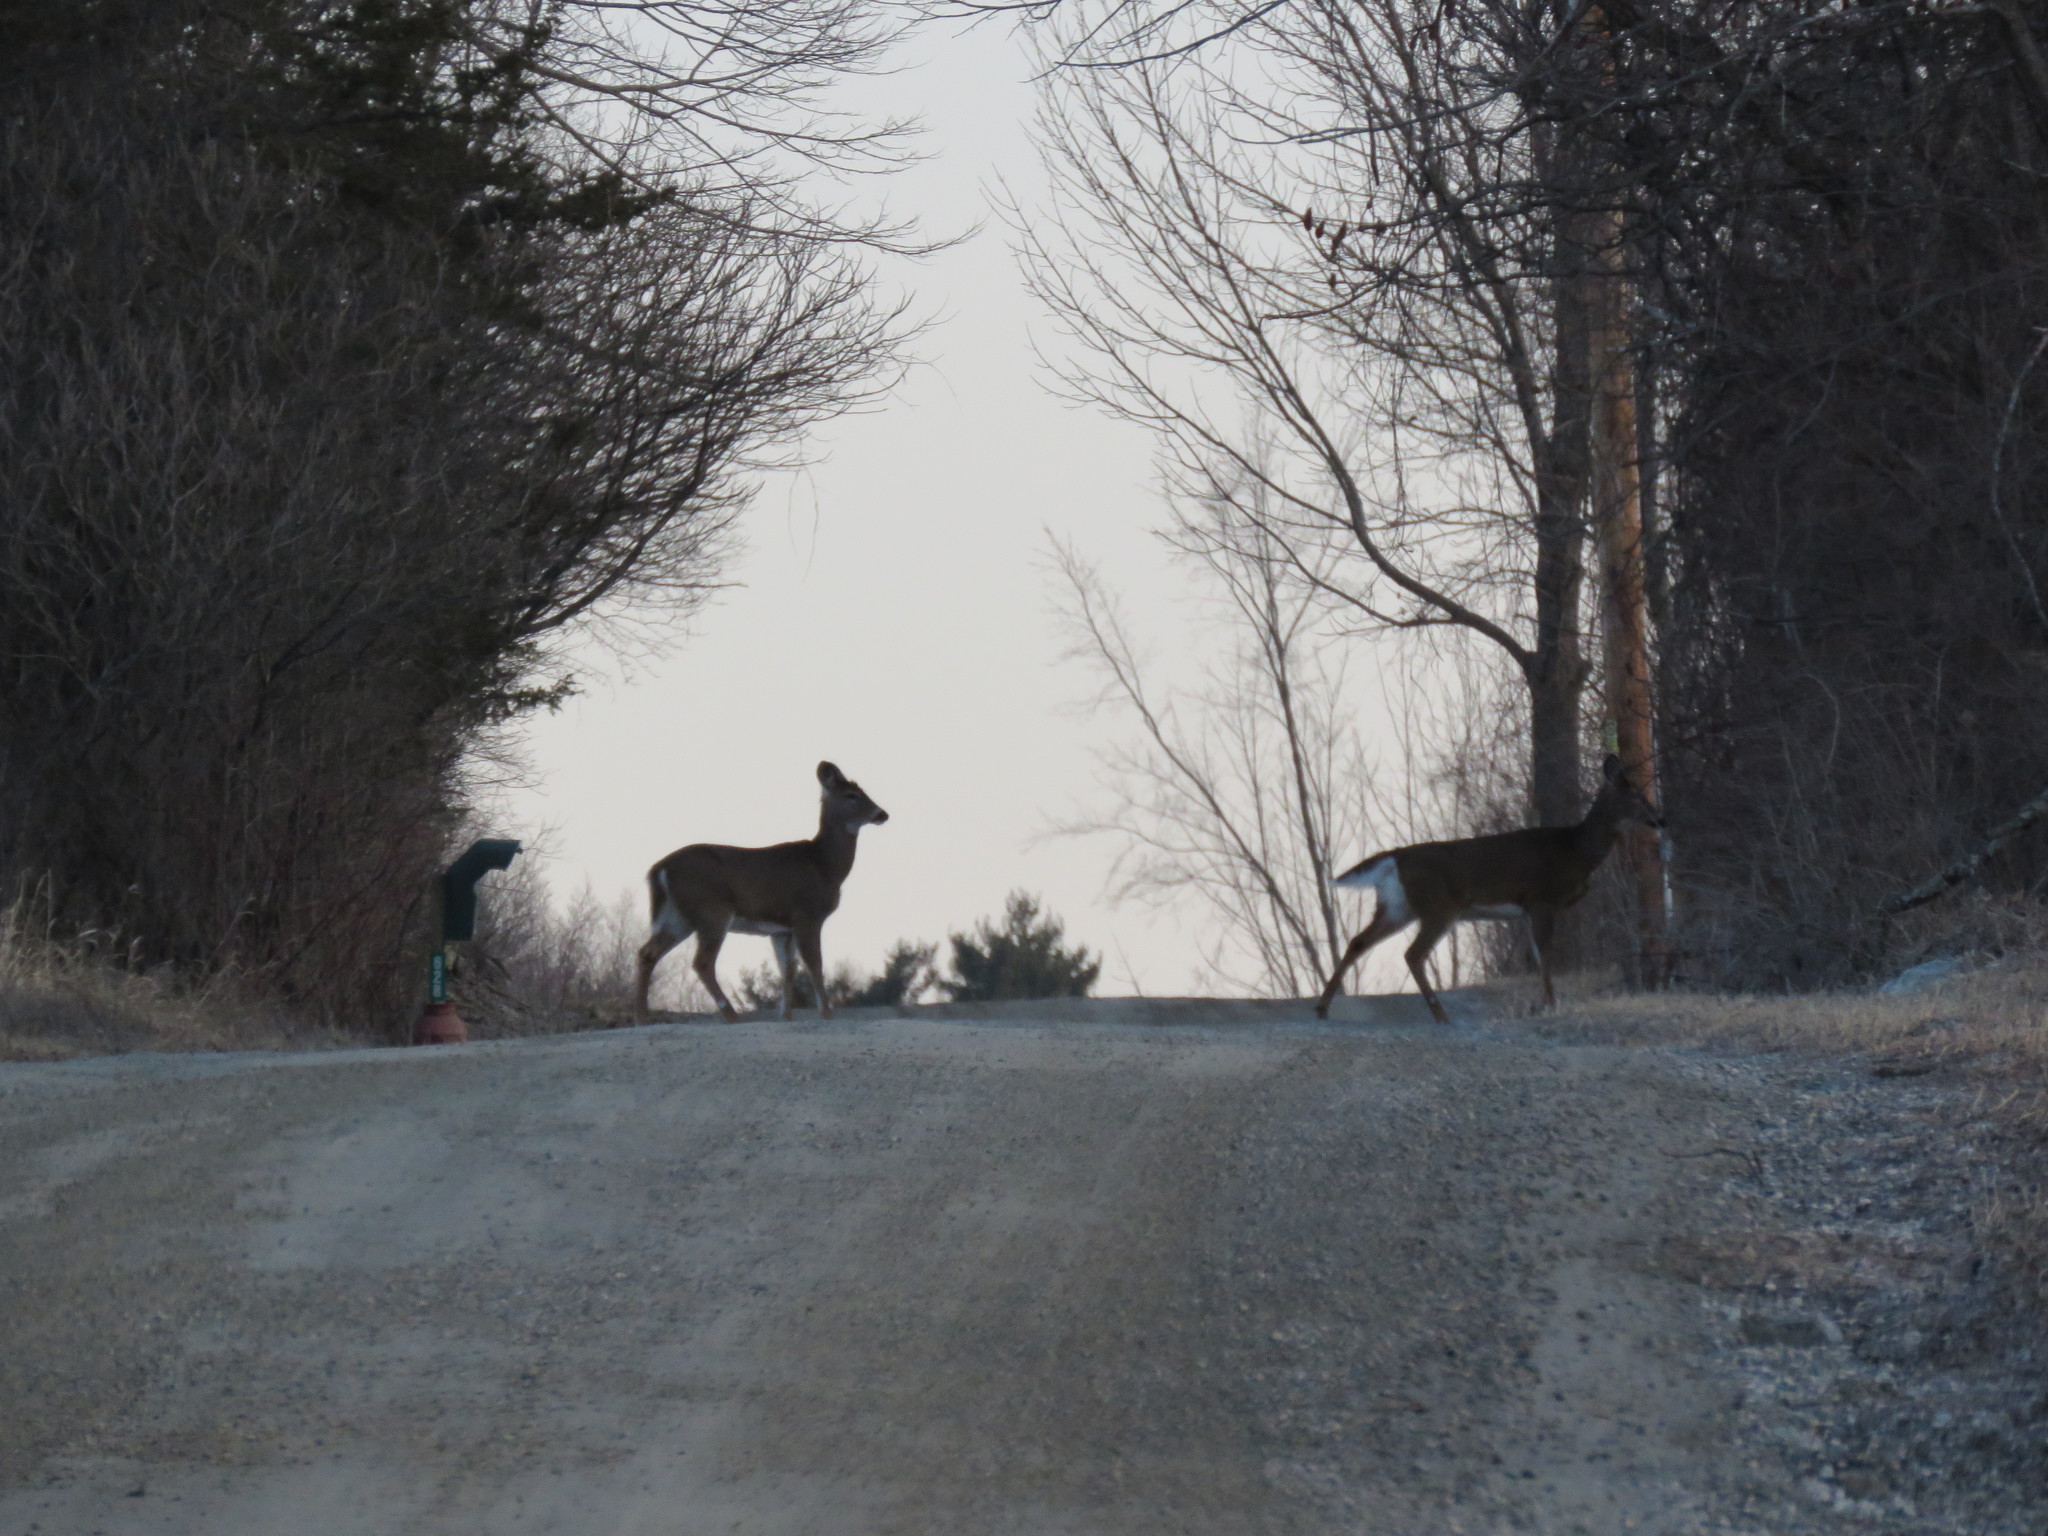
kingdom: Animalia
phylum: Chordata
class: Mammalia
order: Artiodactyla
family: Cervidae
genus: Odocoileus
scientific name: Odocoileus virginianus
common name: White-tailed deer
